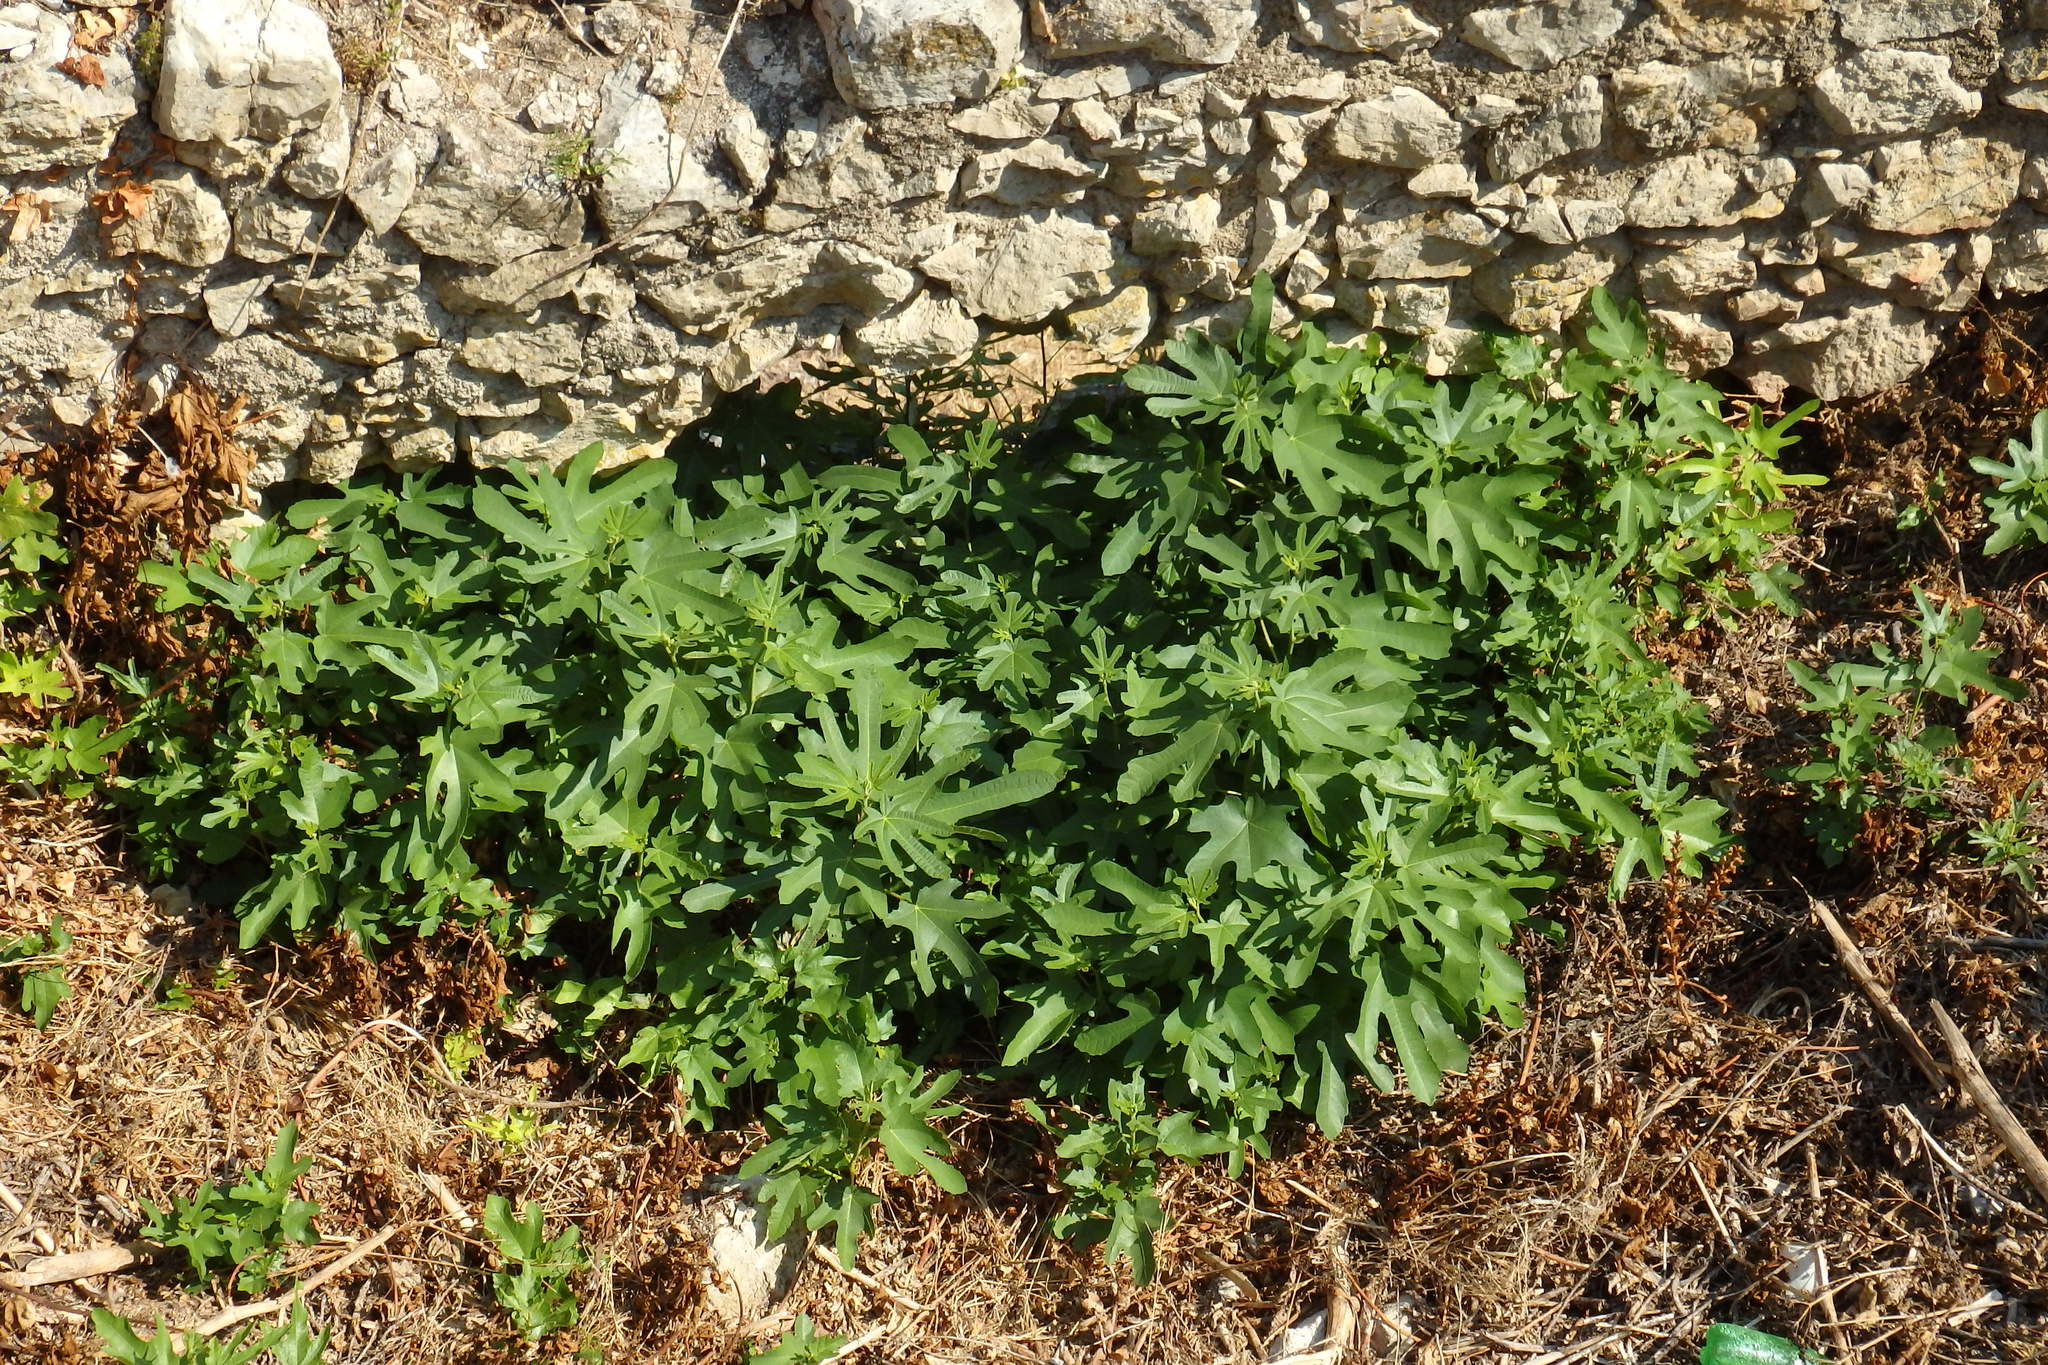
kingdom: Plantae
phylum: Tracheophyta
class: Magnoliopsida
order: Rosales
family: Moraceae
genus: Ficus
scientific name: Ficus carica
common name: Fig
